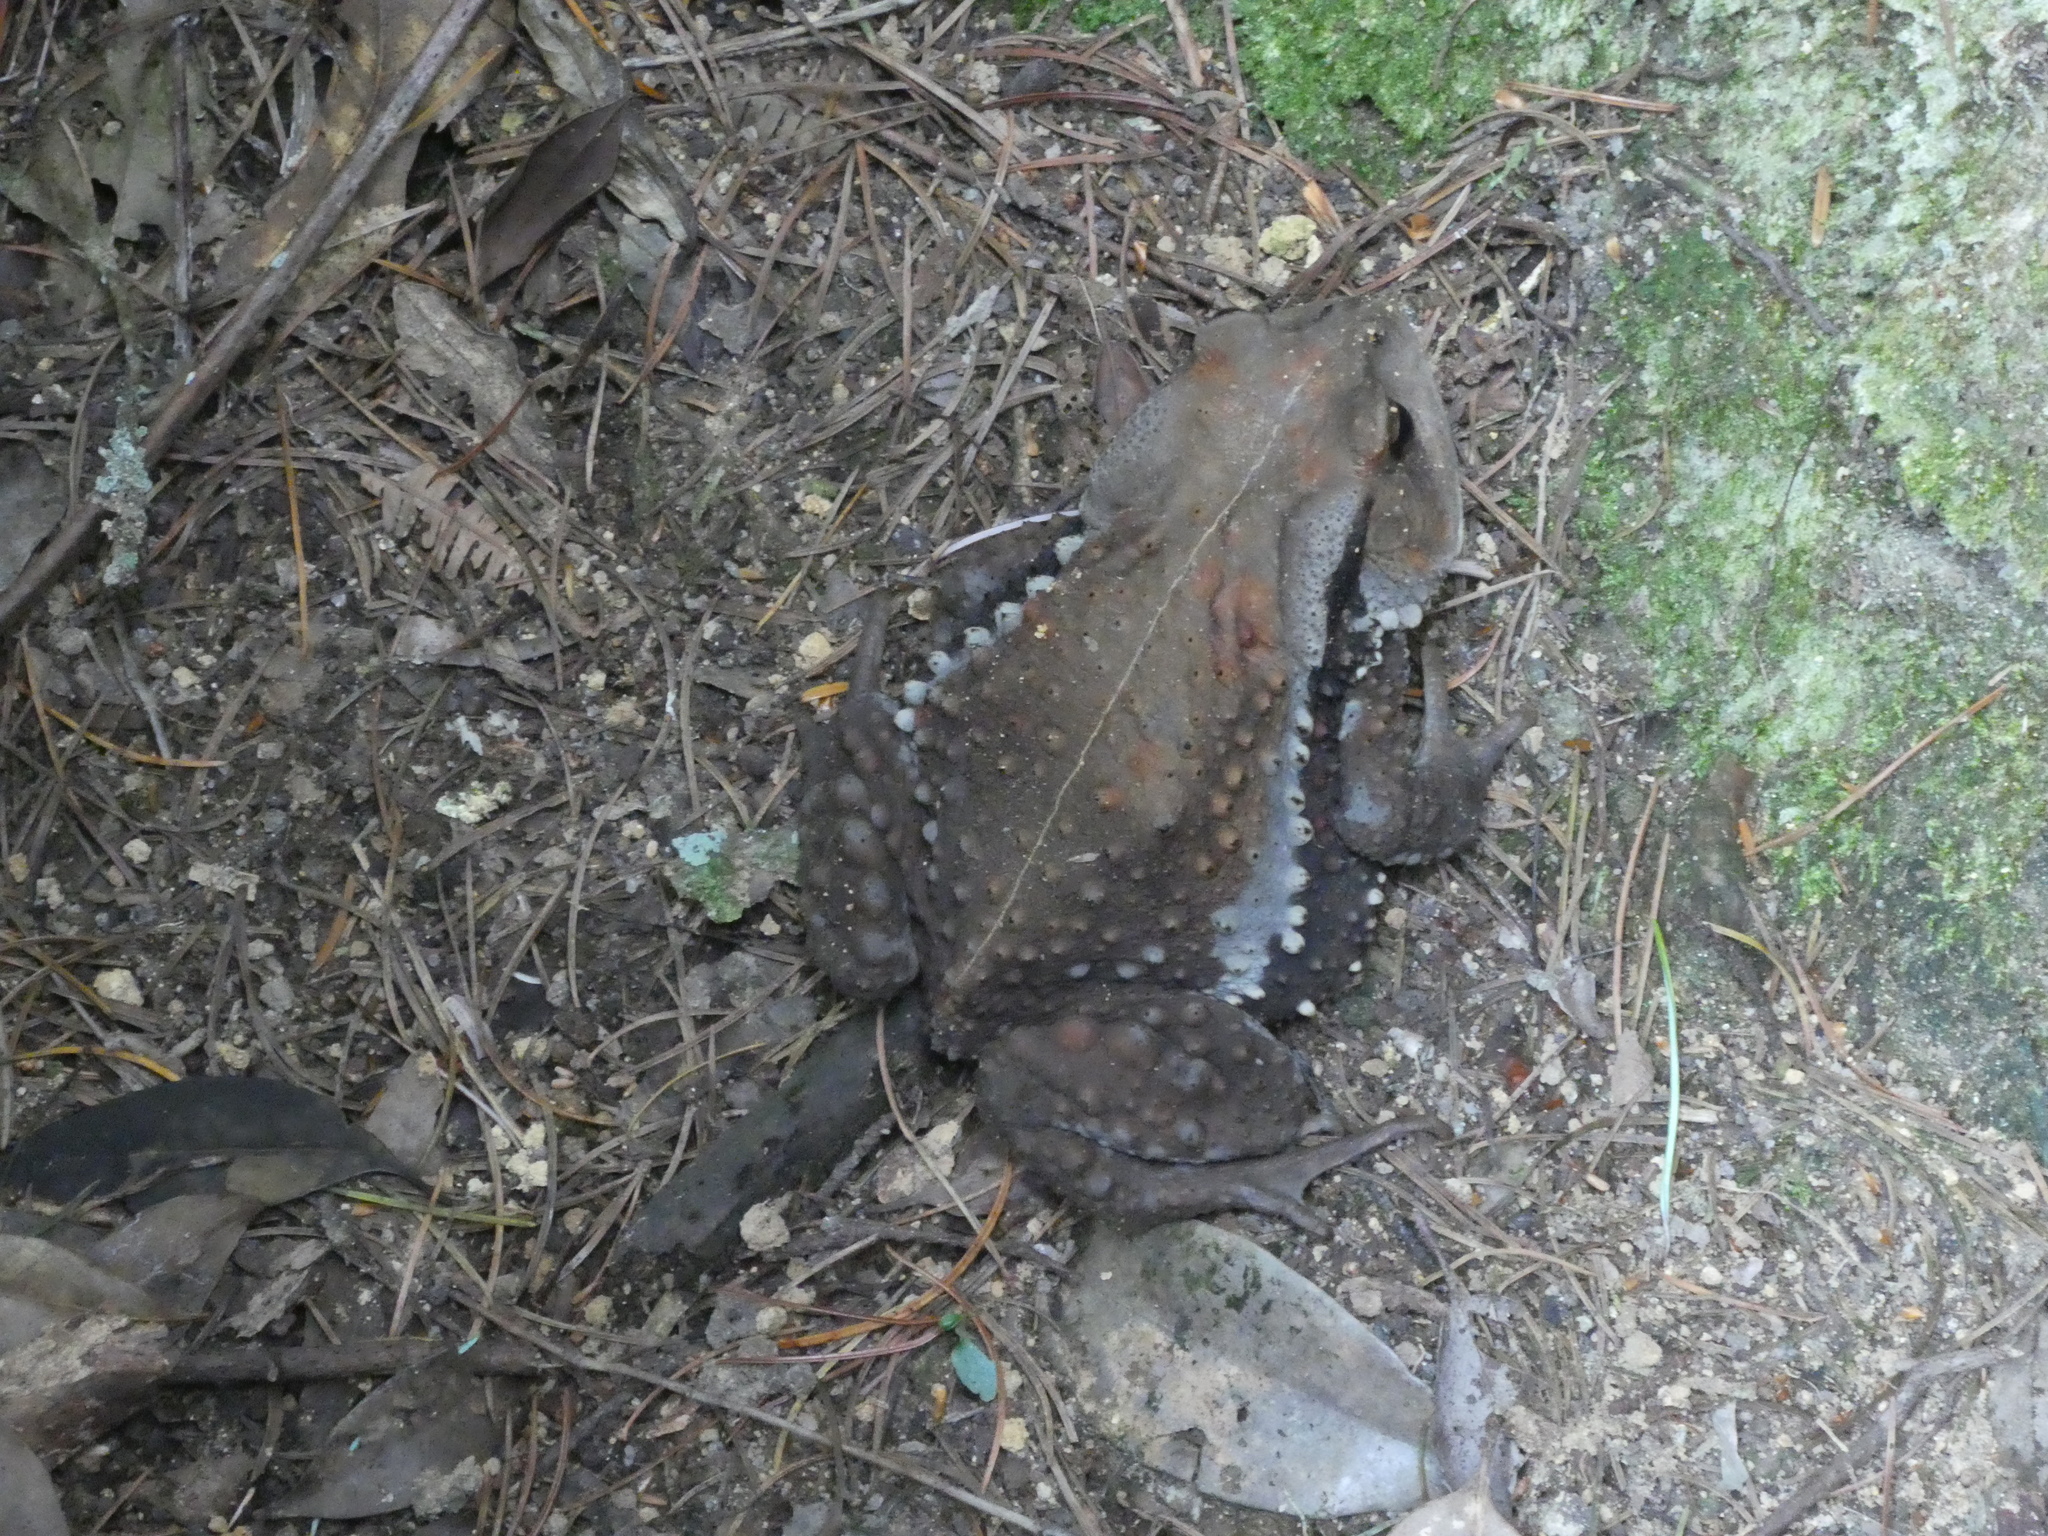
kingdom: Animalia
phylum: Chordata
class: Amphibia
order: Anura
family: Bufonidae
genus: Bufo
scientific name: Bufo gargarizans
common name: Asiatic toad
